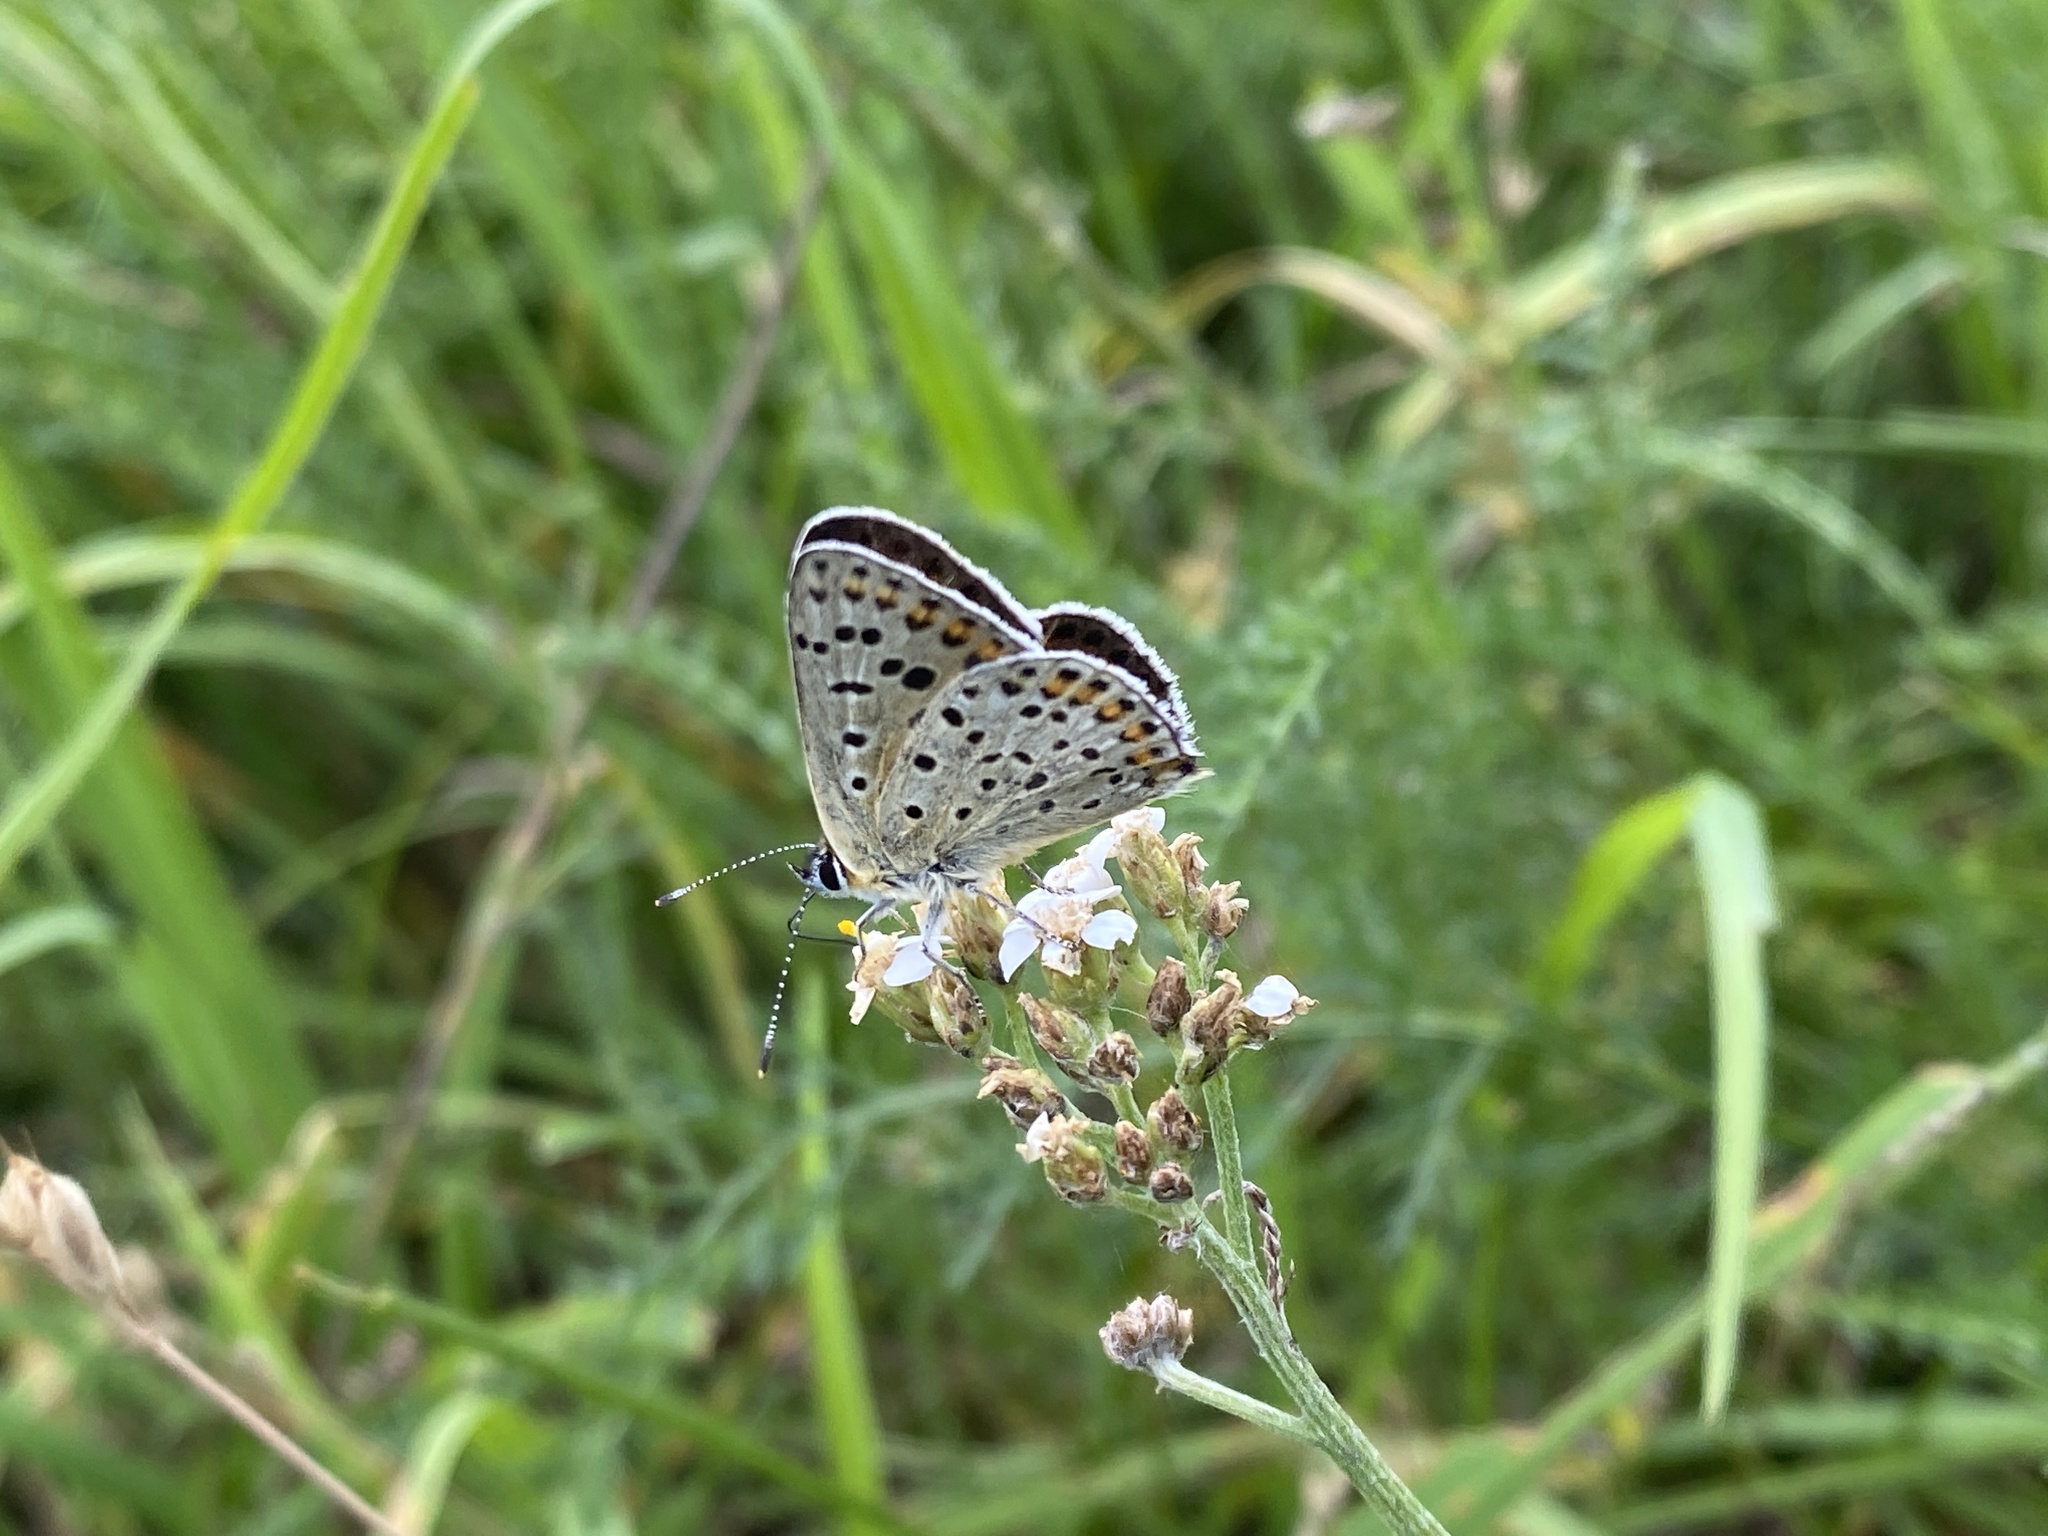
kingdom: Animalia
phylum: Arthropoda
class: Insecta
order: Lepidoptera
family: Lycaenidae
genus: Loweia
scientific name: Loweia tityrus
